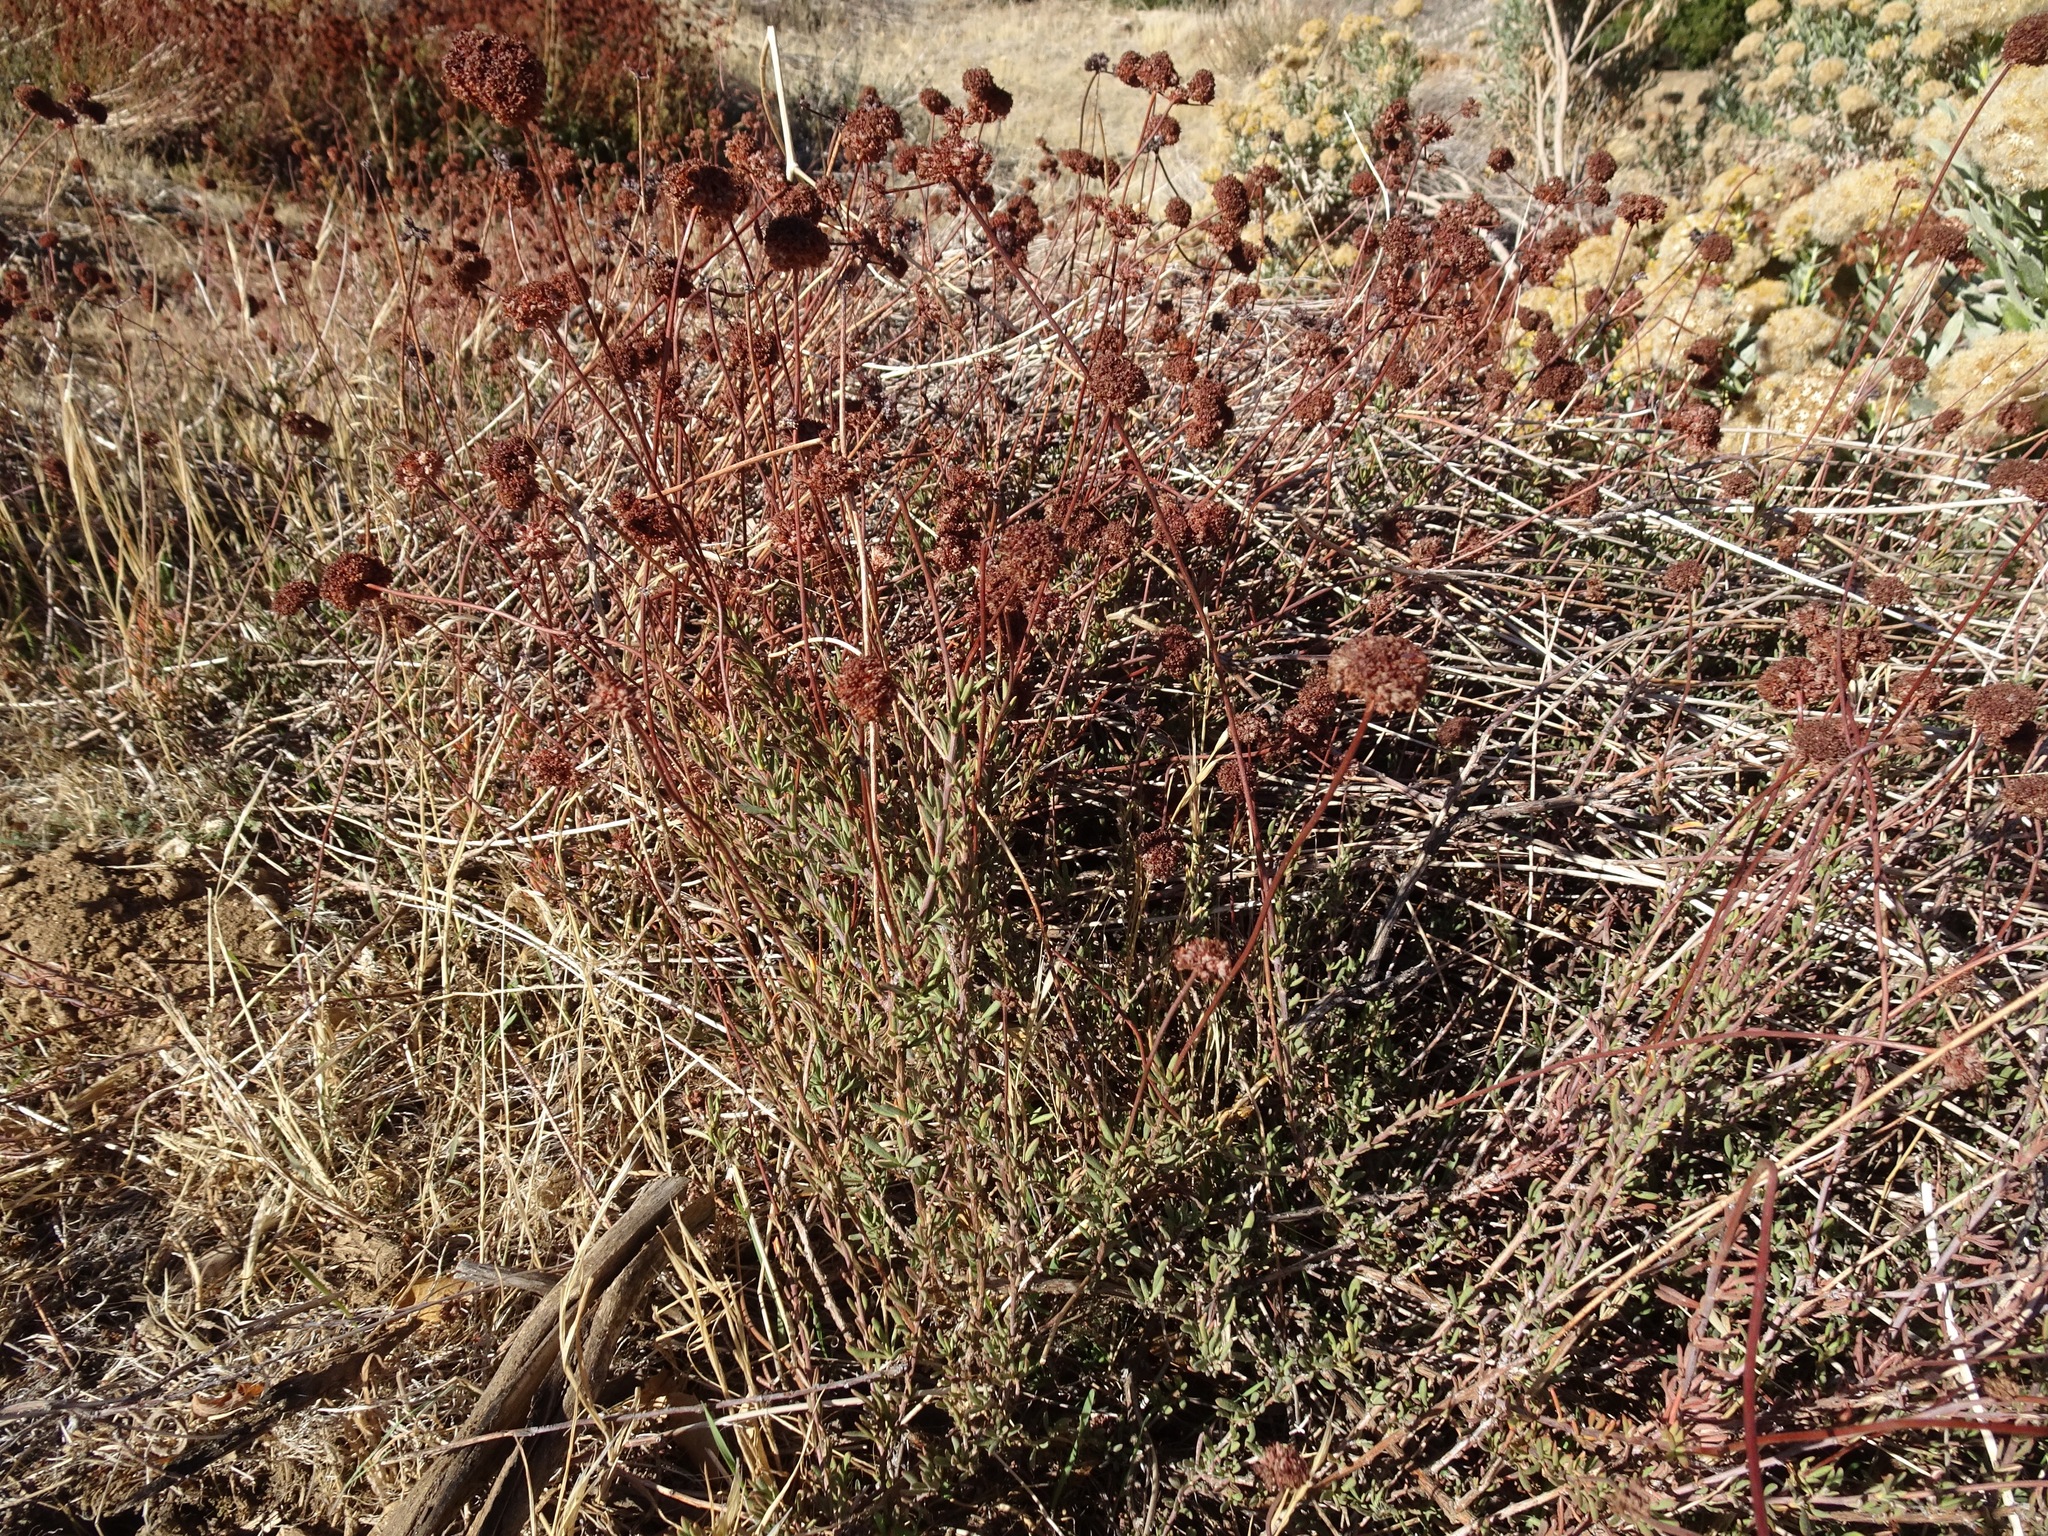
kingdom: Plantae
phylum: Tracheophyta
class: Magnoliopsida
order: Caryophyllales
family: Polygonaceae
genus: Eriogonum
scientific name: Eriogonum fasciculatum
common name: California wild buckwheat
